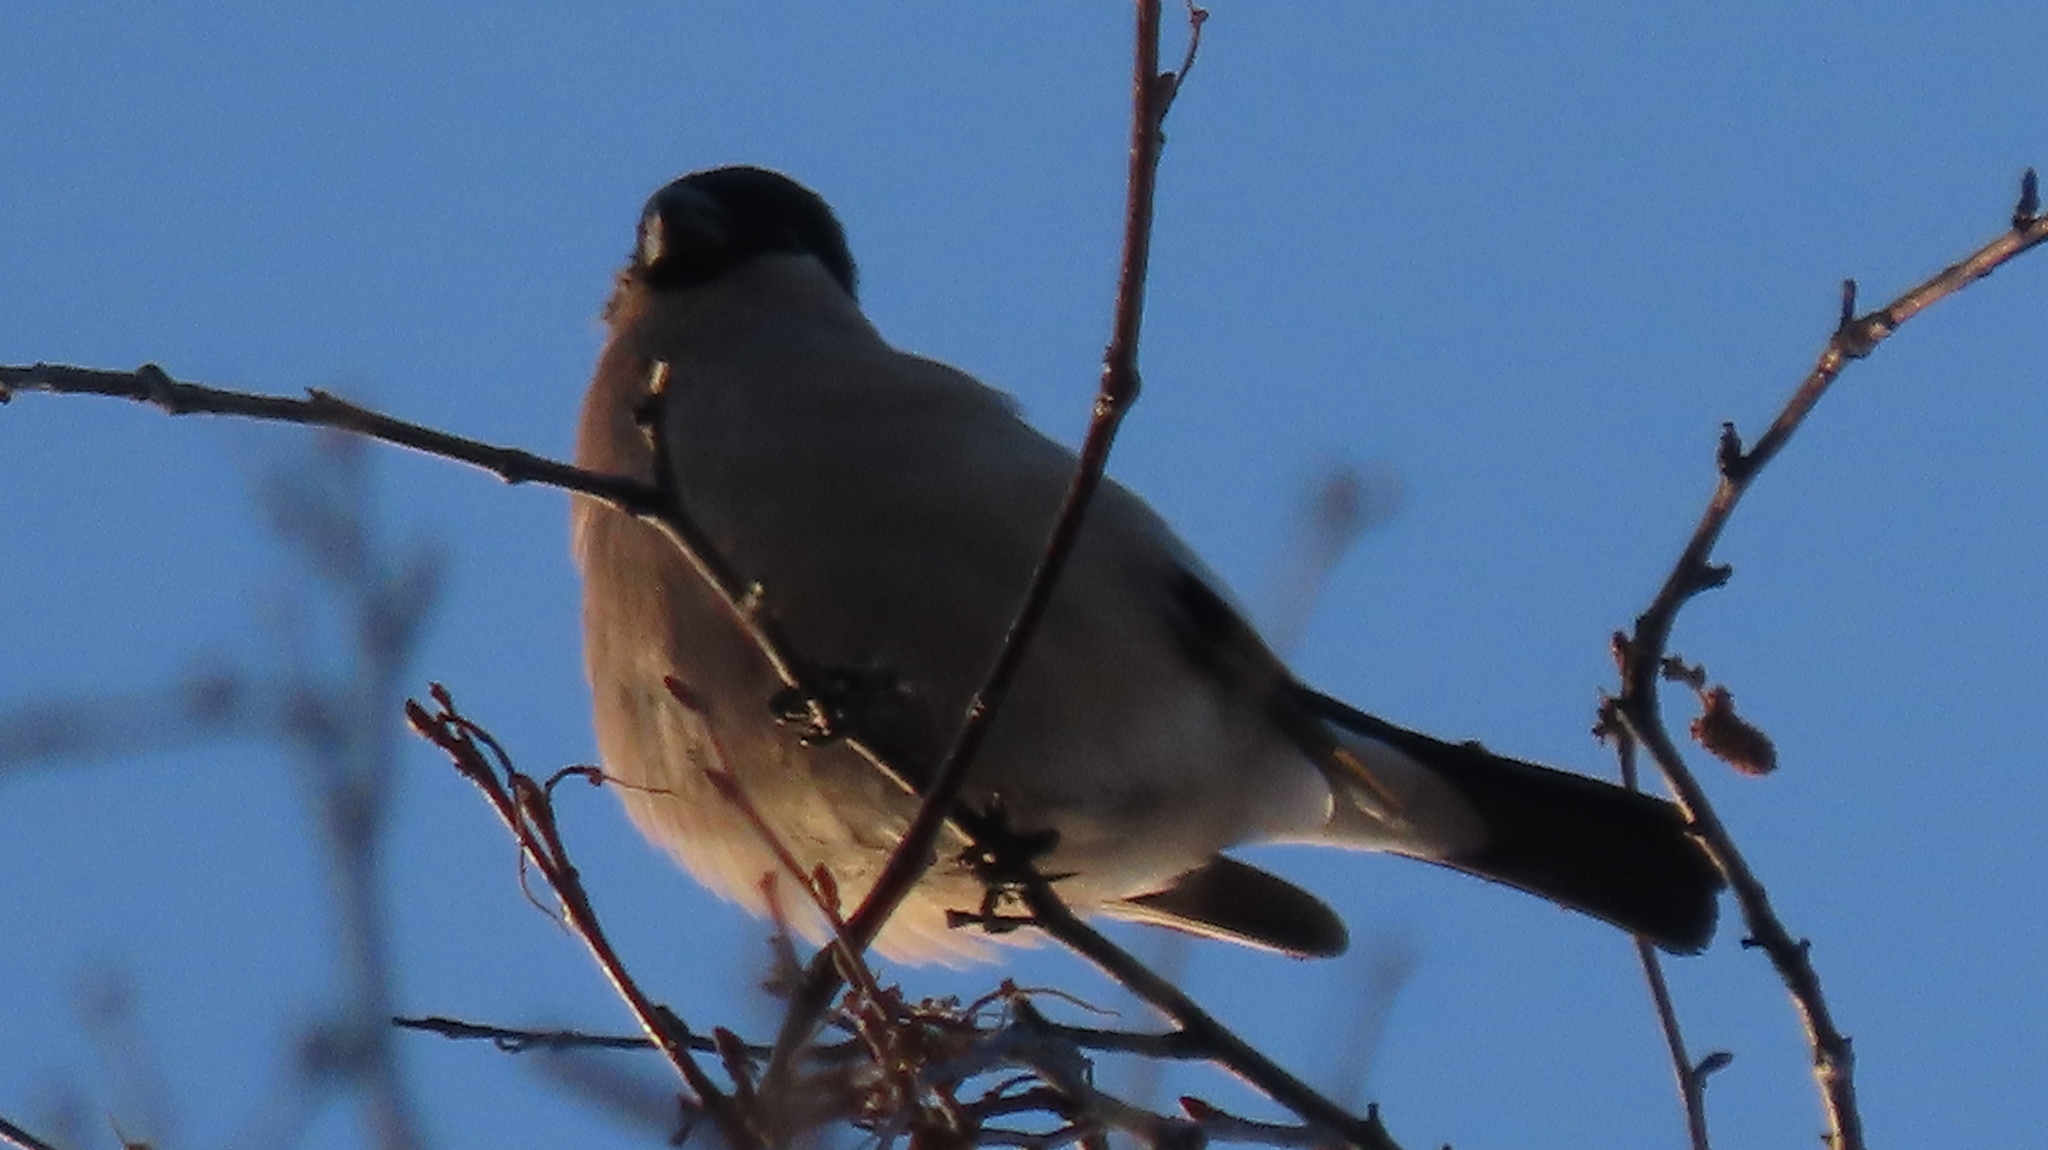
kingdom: Animalia
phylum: Chordata
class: Aves
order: Passeriformes
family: Fringillidae
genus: Pyrrhula
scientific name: Pyrrhula pyrrhula
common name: Eurasian bullfinch
